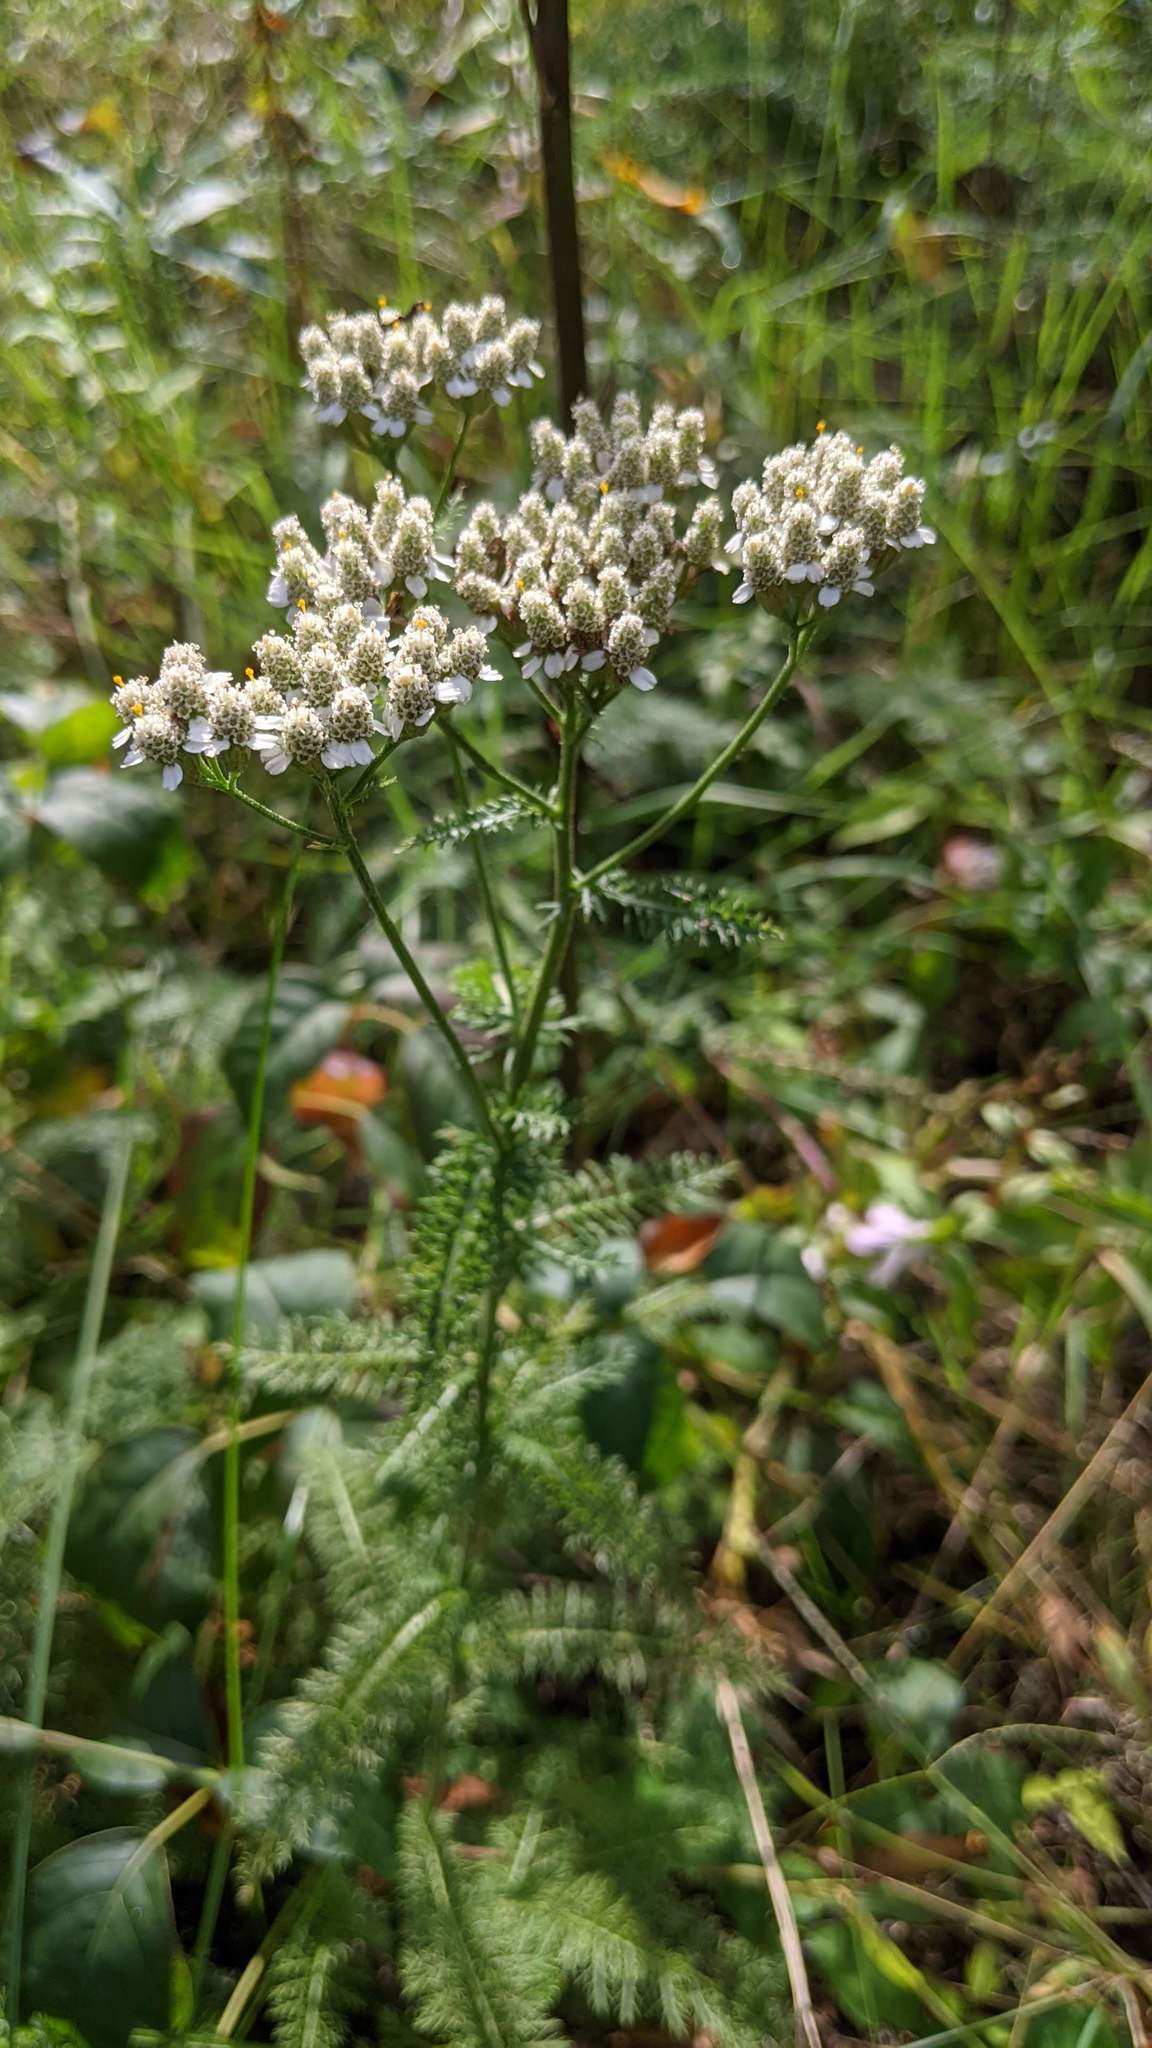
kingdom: Plantae
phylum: Tracheophyta
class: Magnoliopsida
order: Asterales
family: Asteraceae
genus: Achillea
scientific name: Achillea millefolium
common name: Yarrow
